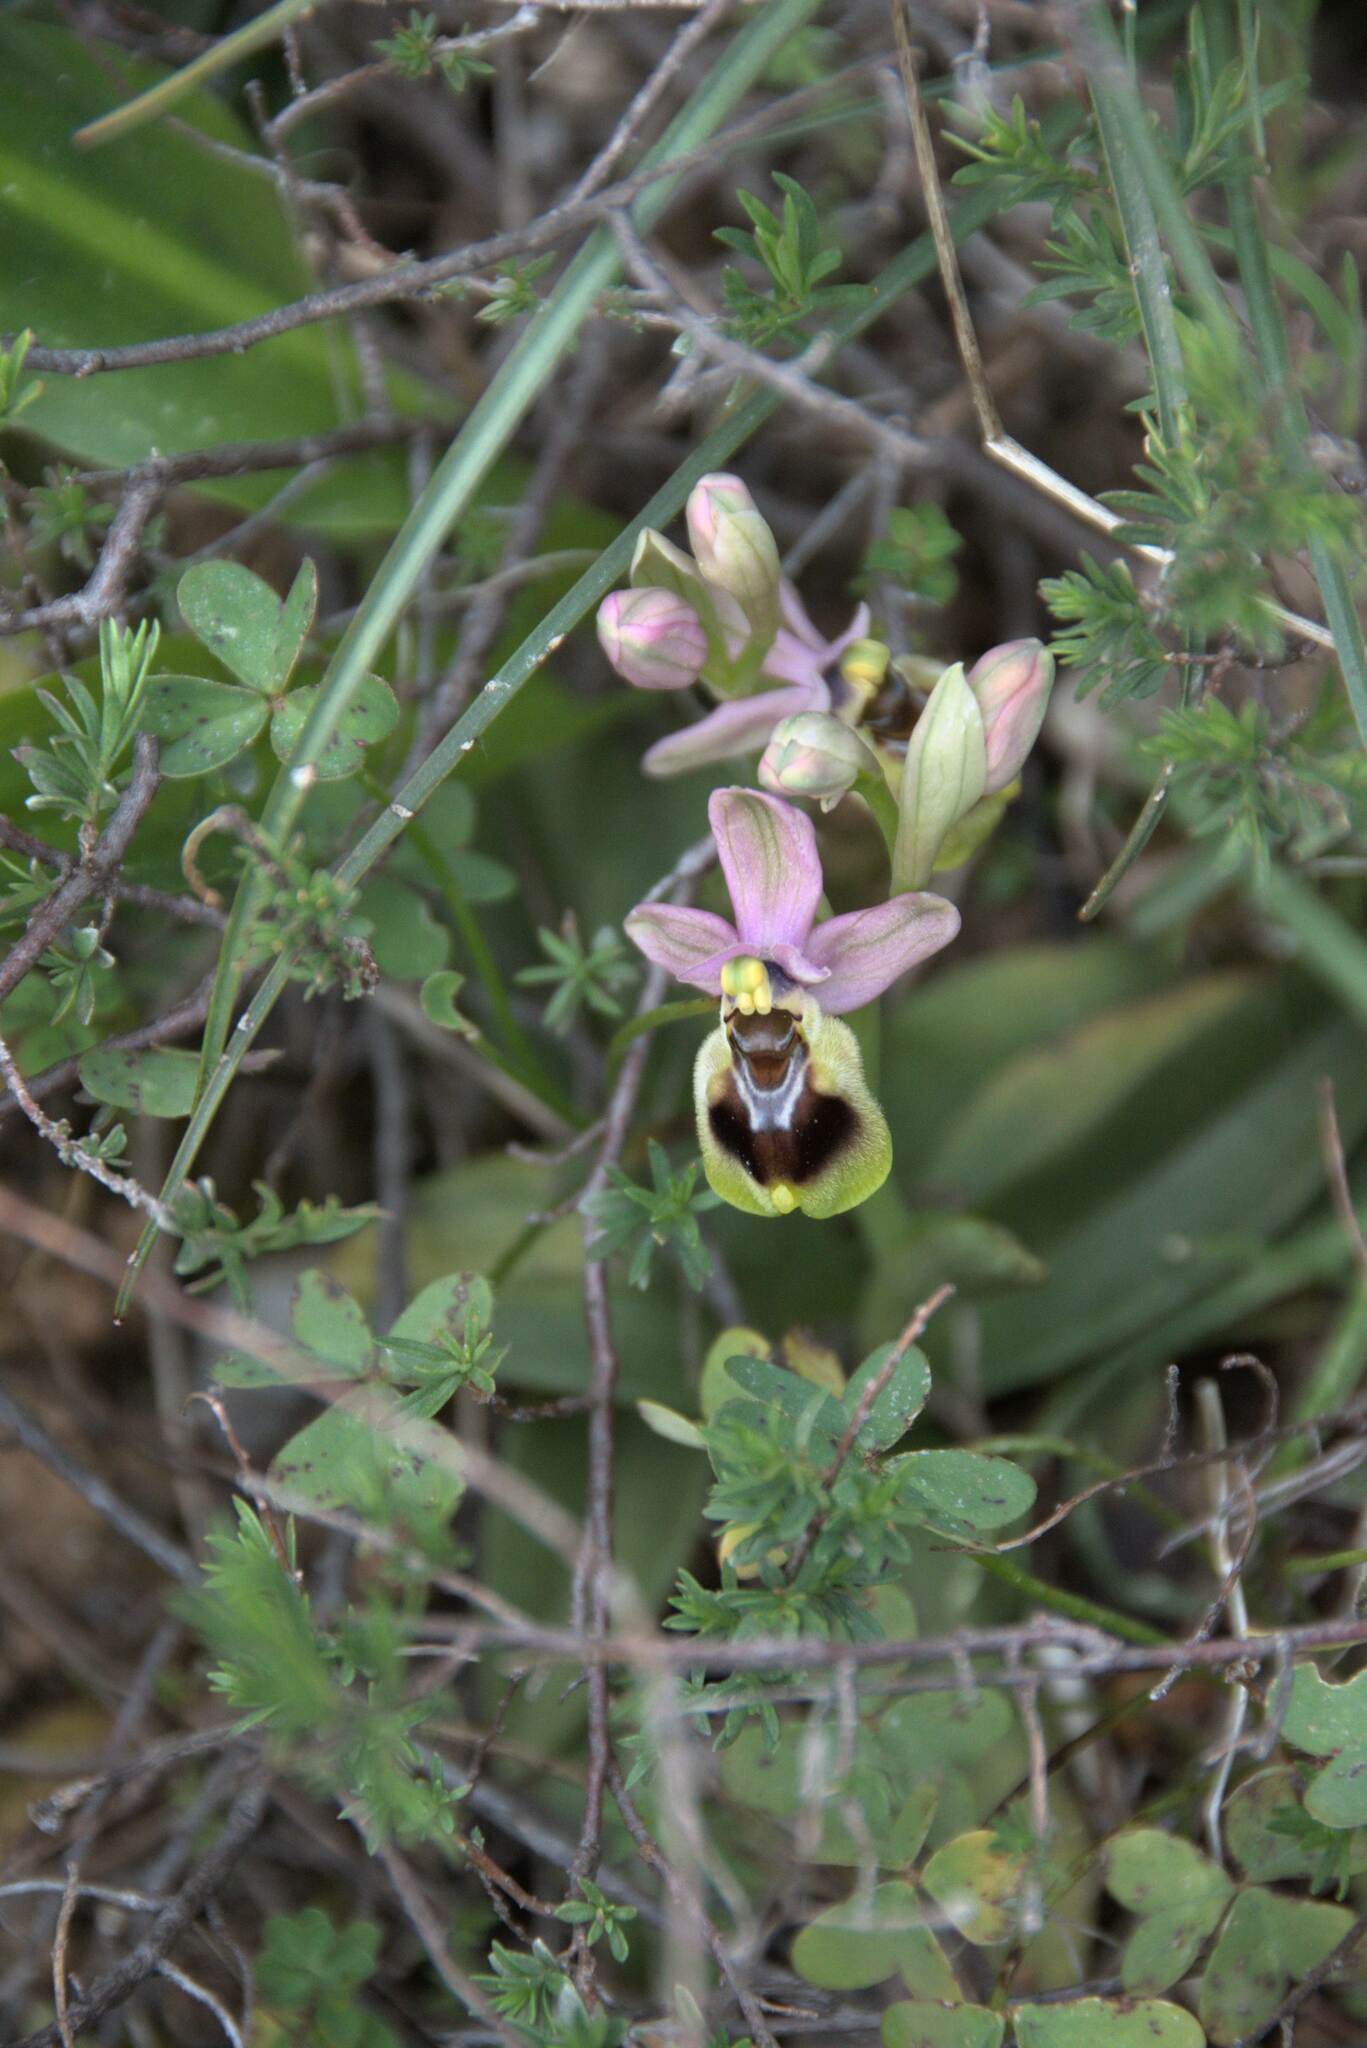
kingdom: Plantae
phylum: Tracheophyta
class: Liliopsida
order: Asparagales
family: Orchidaceae
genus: Ophrys
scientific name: Ophrys tenthredinifera
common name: Sawfly orchid
